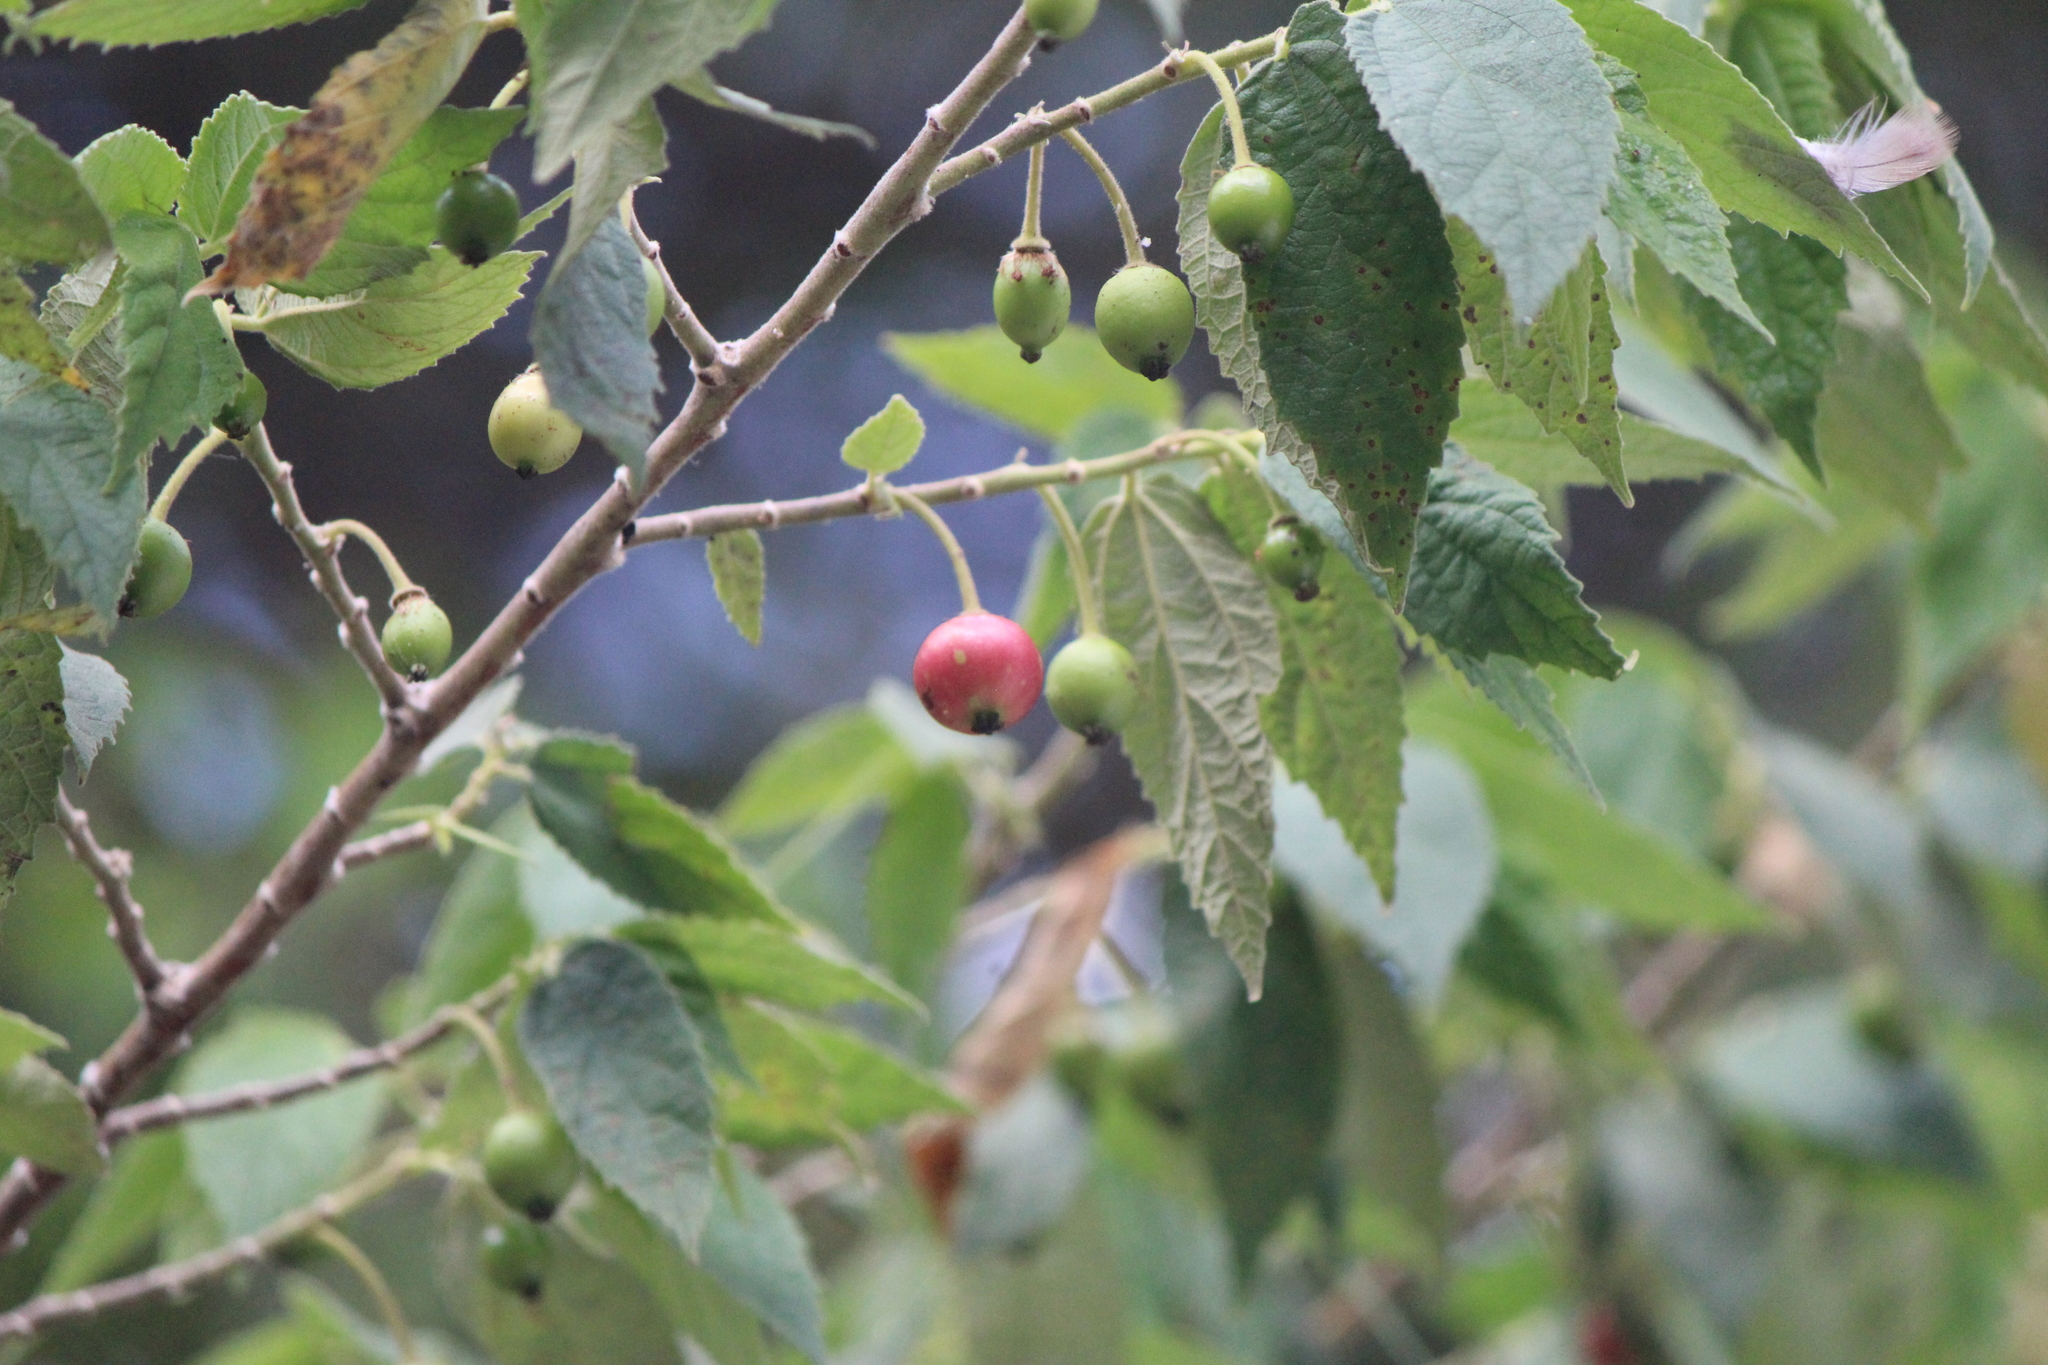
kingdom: Plantae
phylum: Tracheophyta
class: Magnoliopsida
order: Malvales
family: Muntingiaceae
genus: Muntingia
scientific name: Muntingia calabura
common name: Strawberrytree
